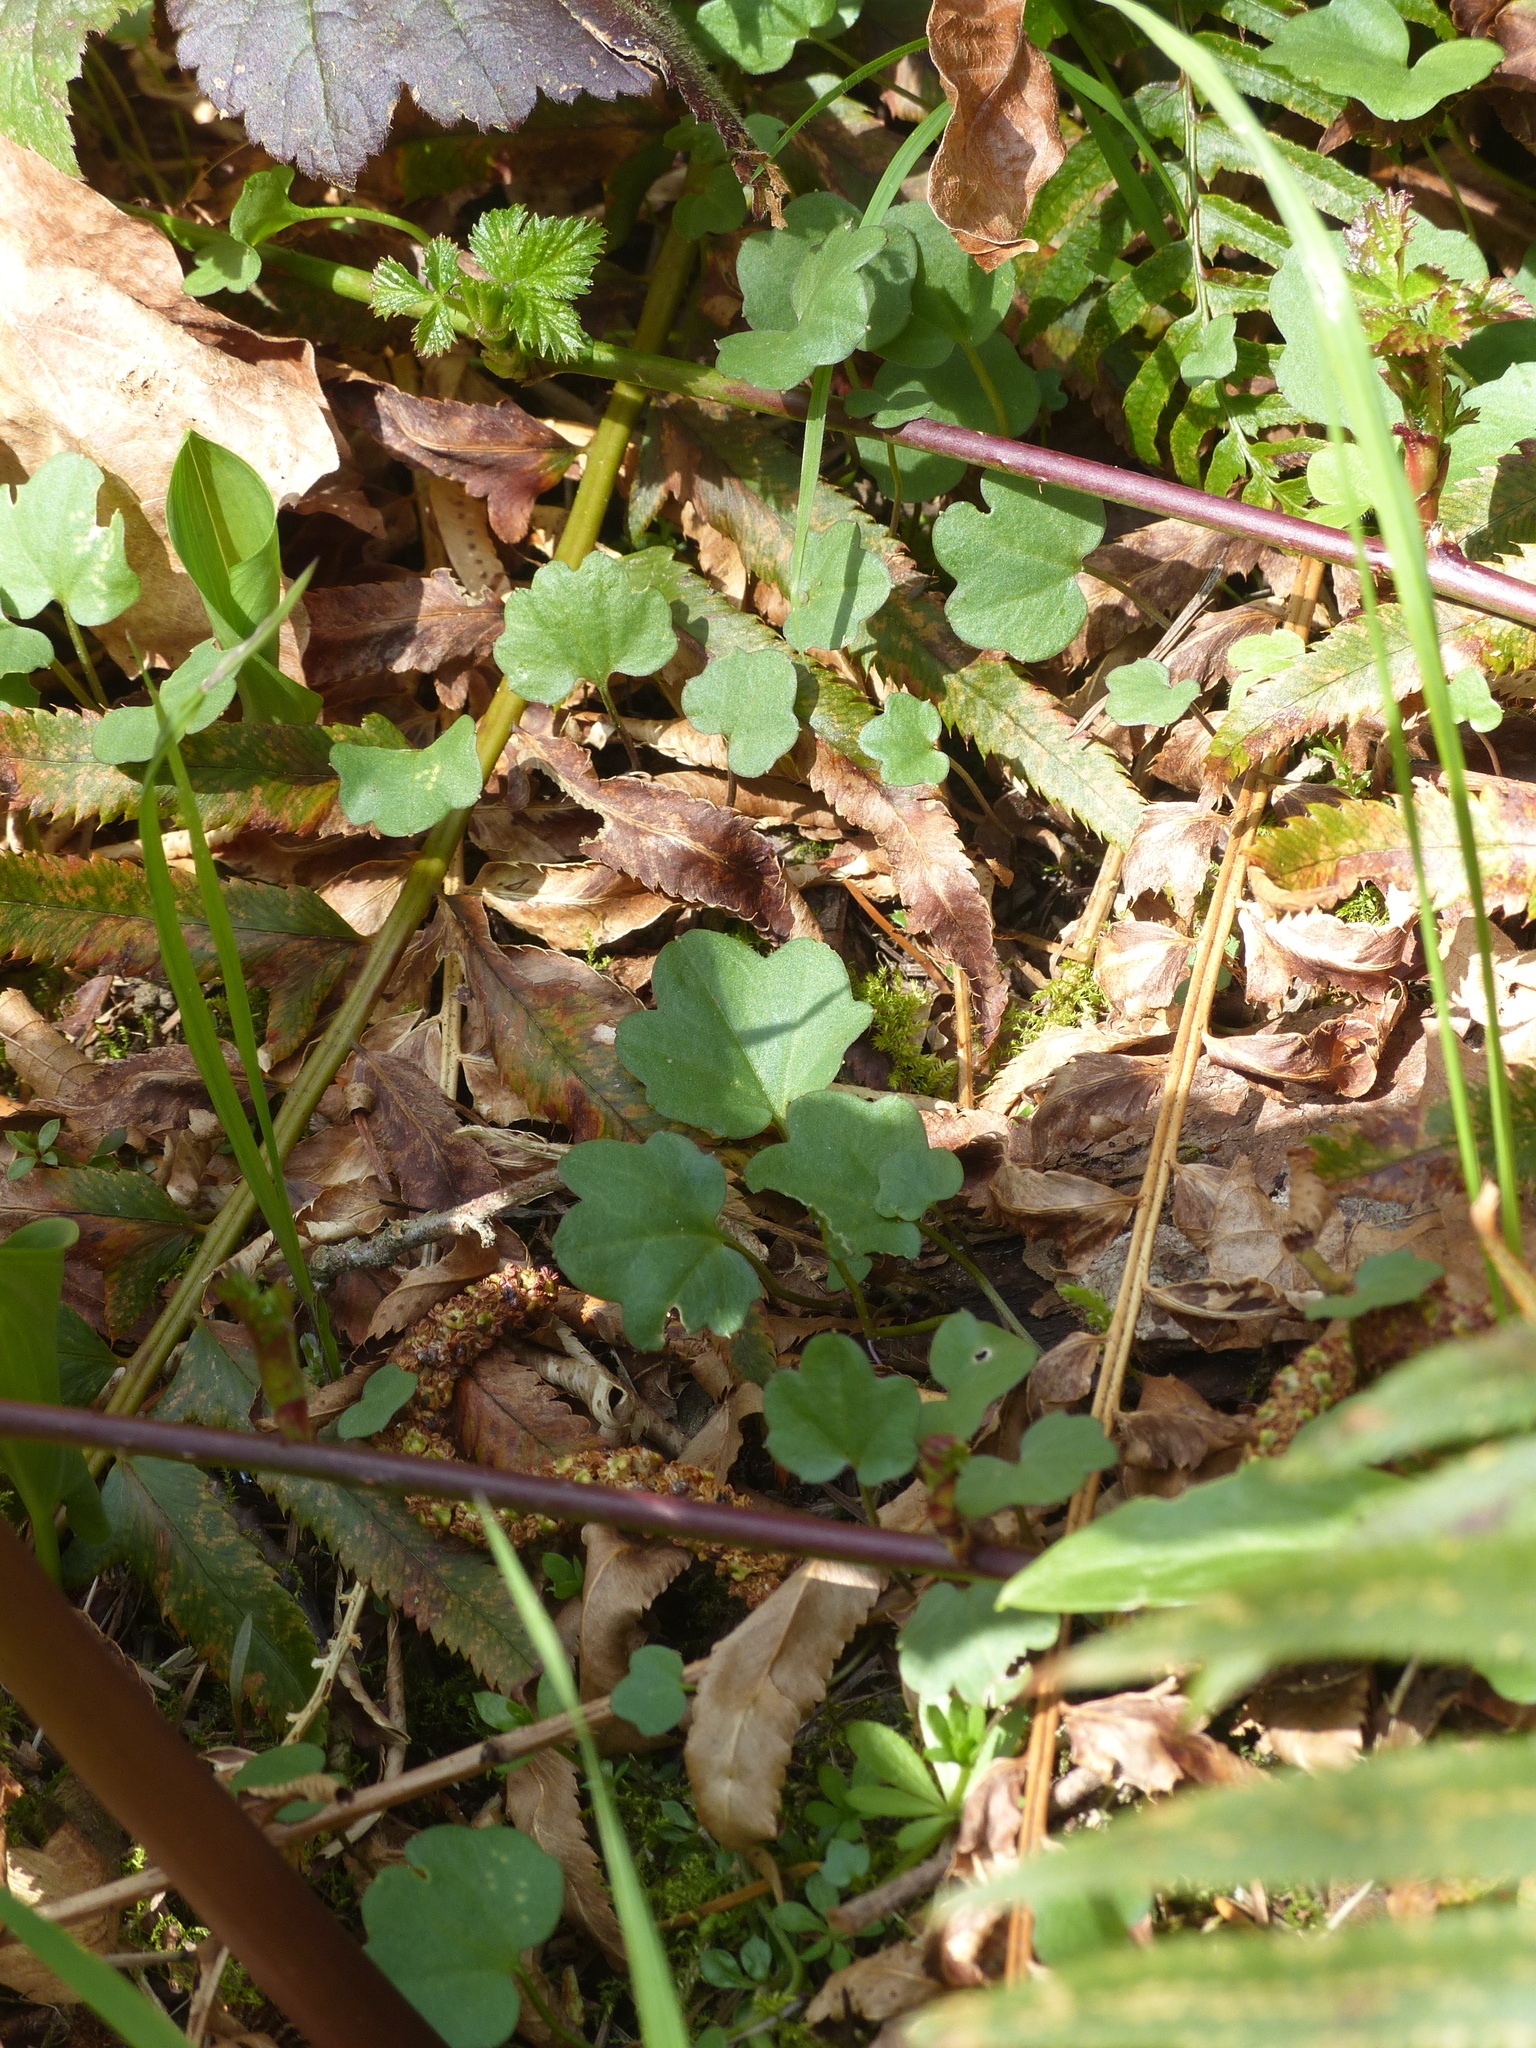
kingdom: Plantae
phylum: Tracheophyta
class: Magnoliopsida
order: Brassicales
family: Brassicaceae
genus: Cardamine
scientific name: Cardamine nuttallii
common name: Nuttall's toothwort
